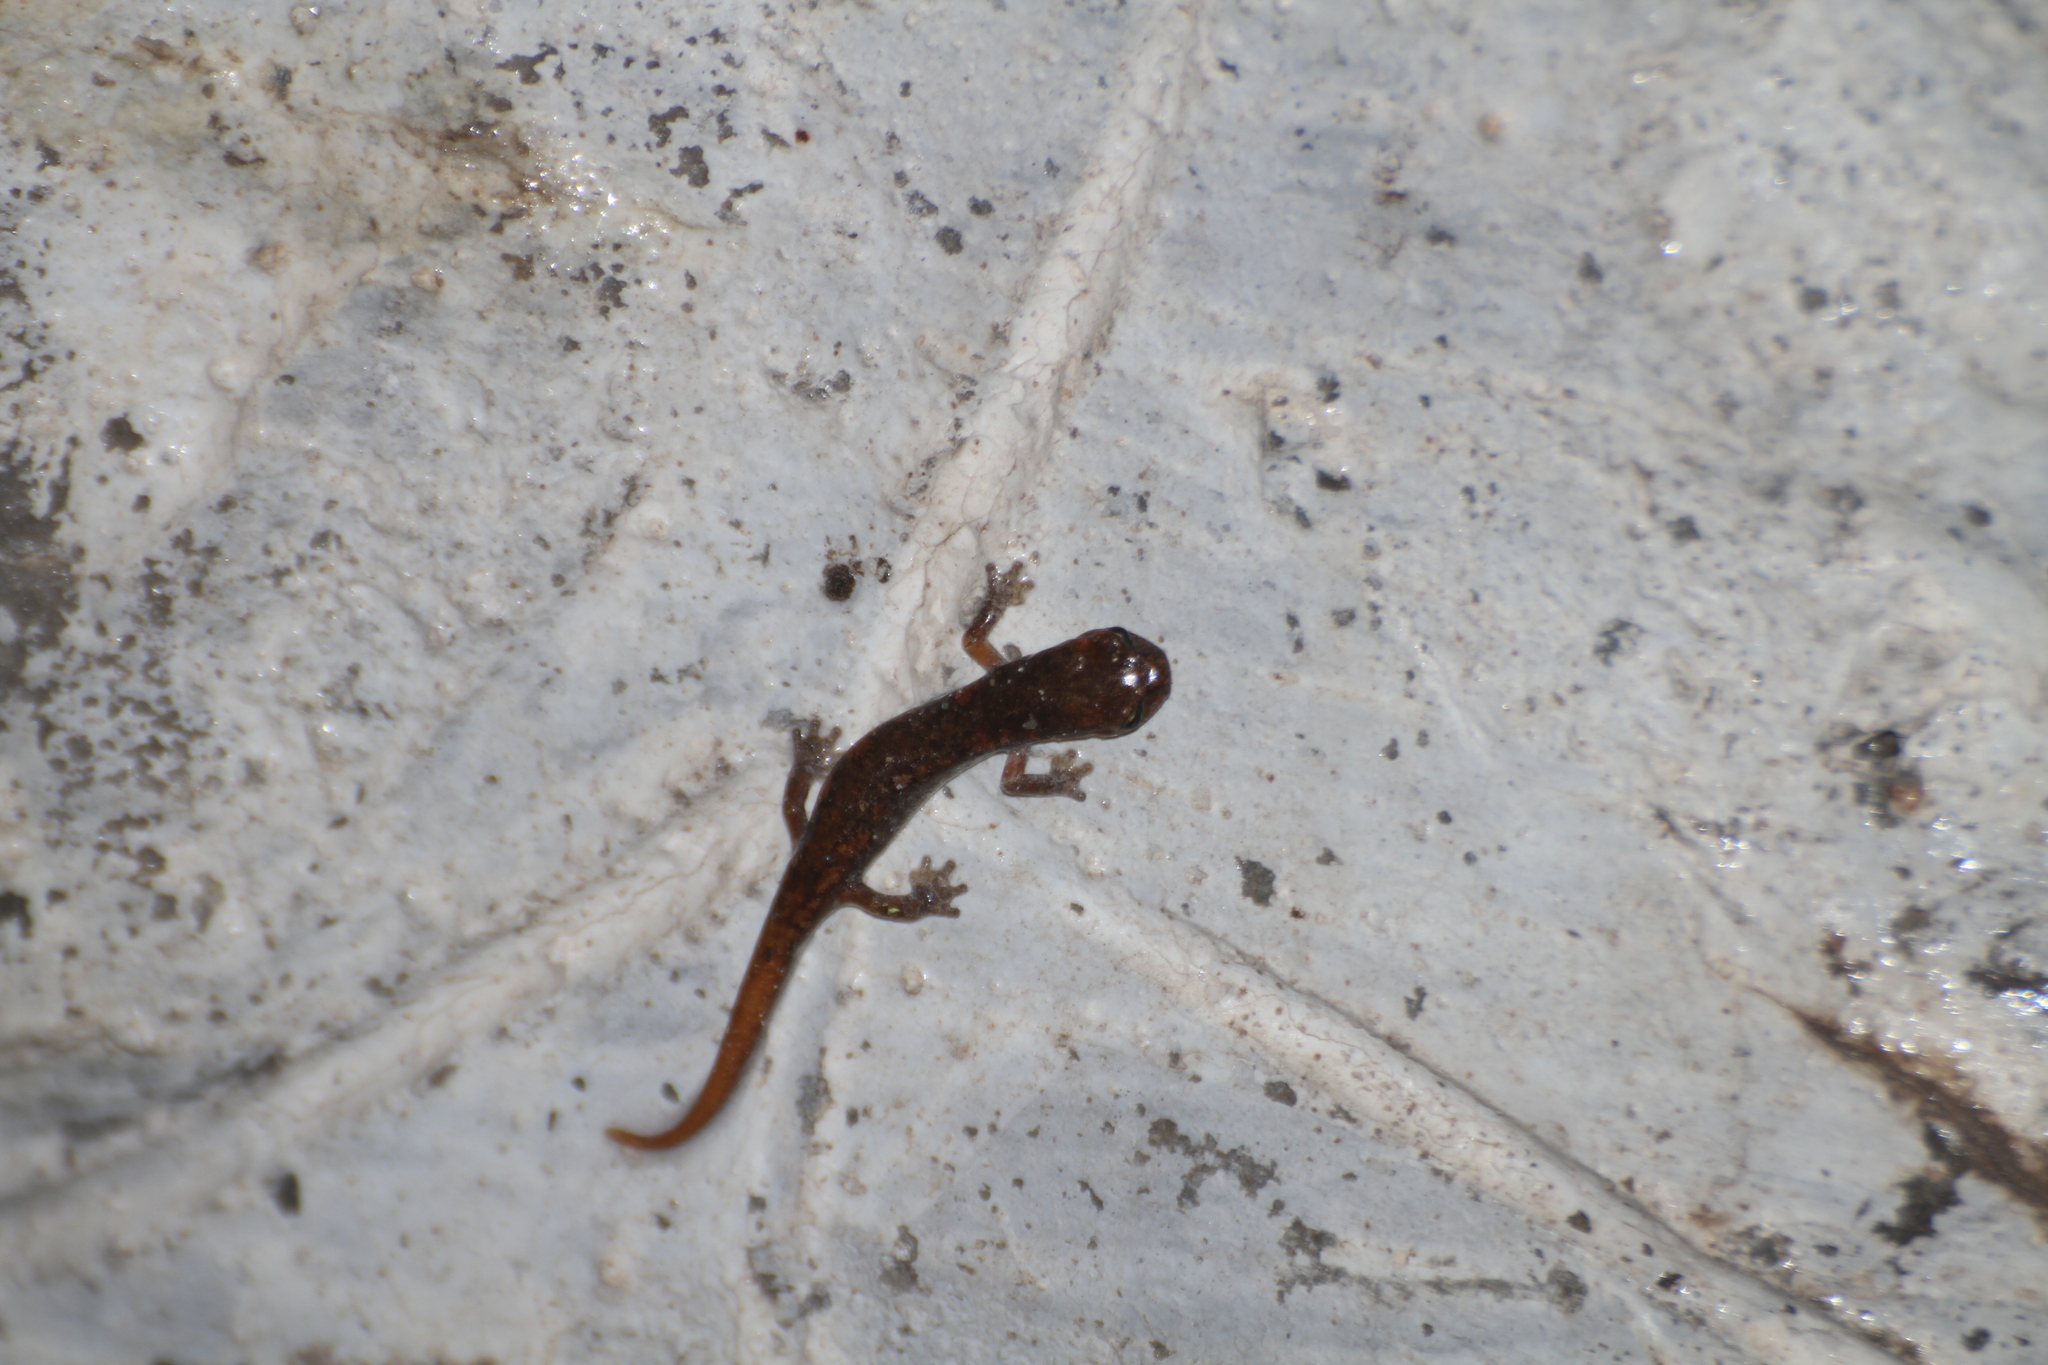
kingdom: Animalia
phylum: Chordata
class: Amphibia
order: Caudata
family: Plethodontidae
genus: Speleomantes
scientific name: Speleomantes strinatii
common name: French cave salamander
